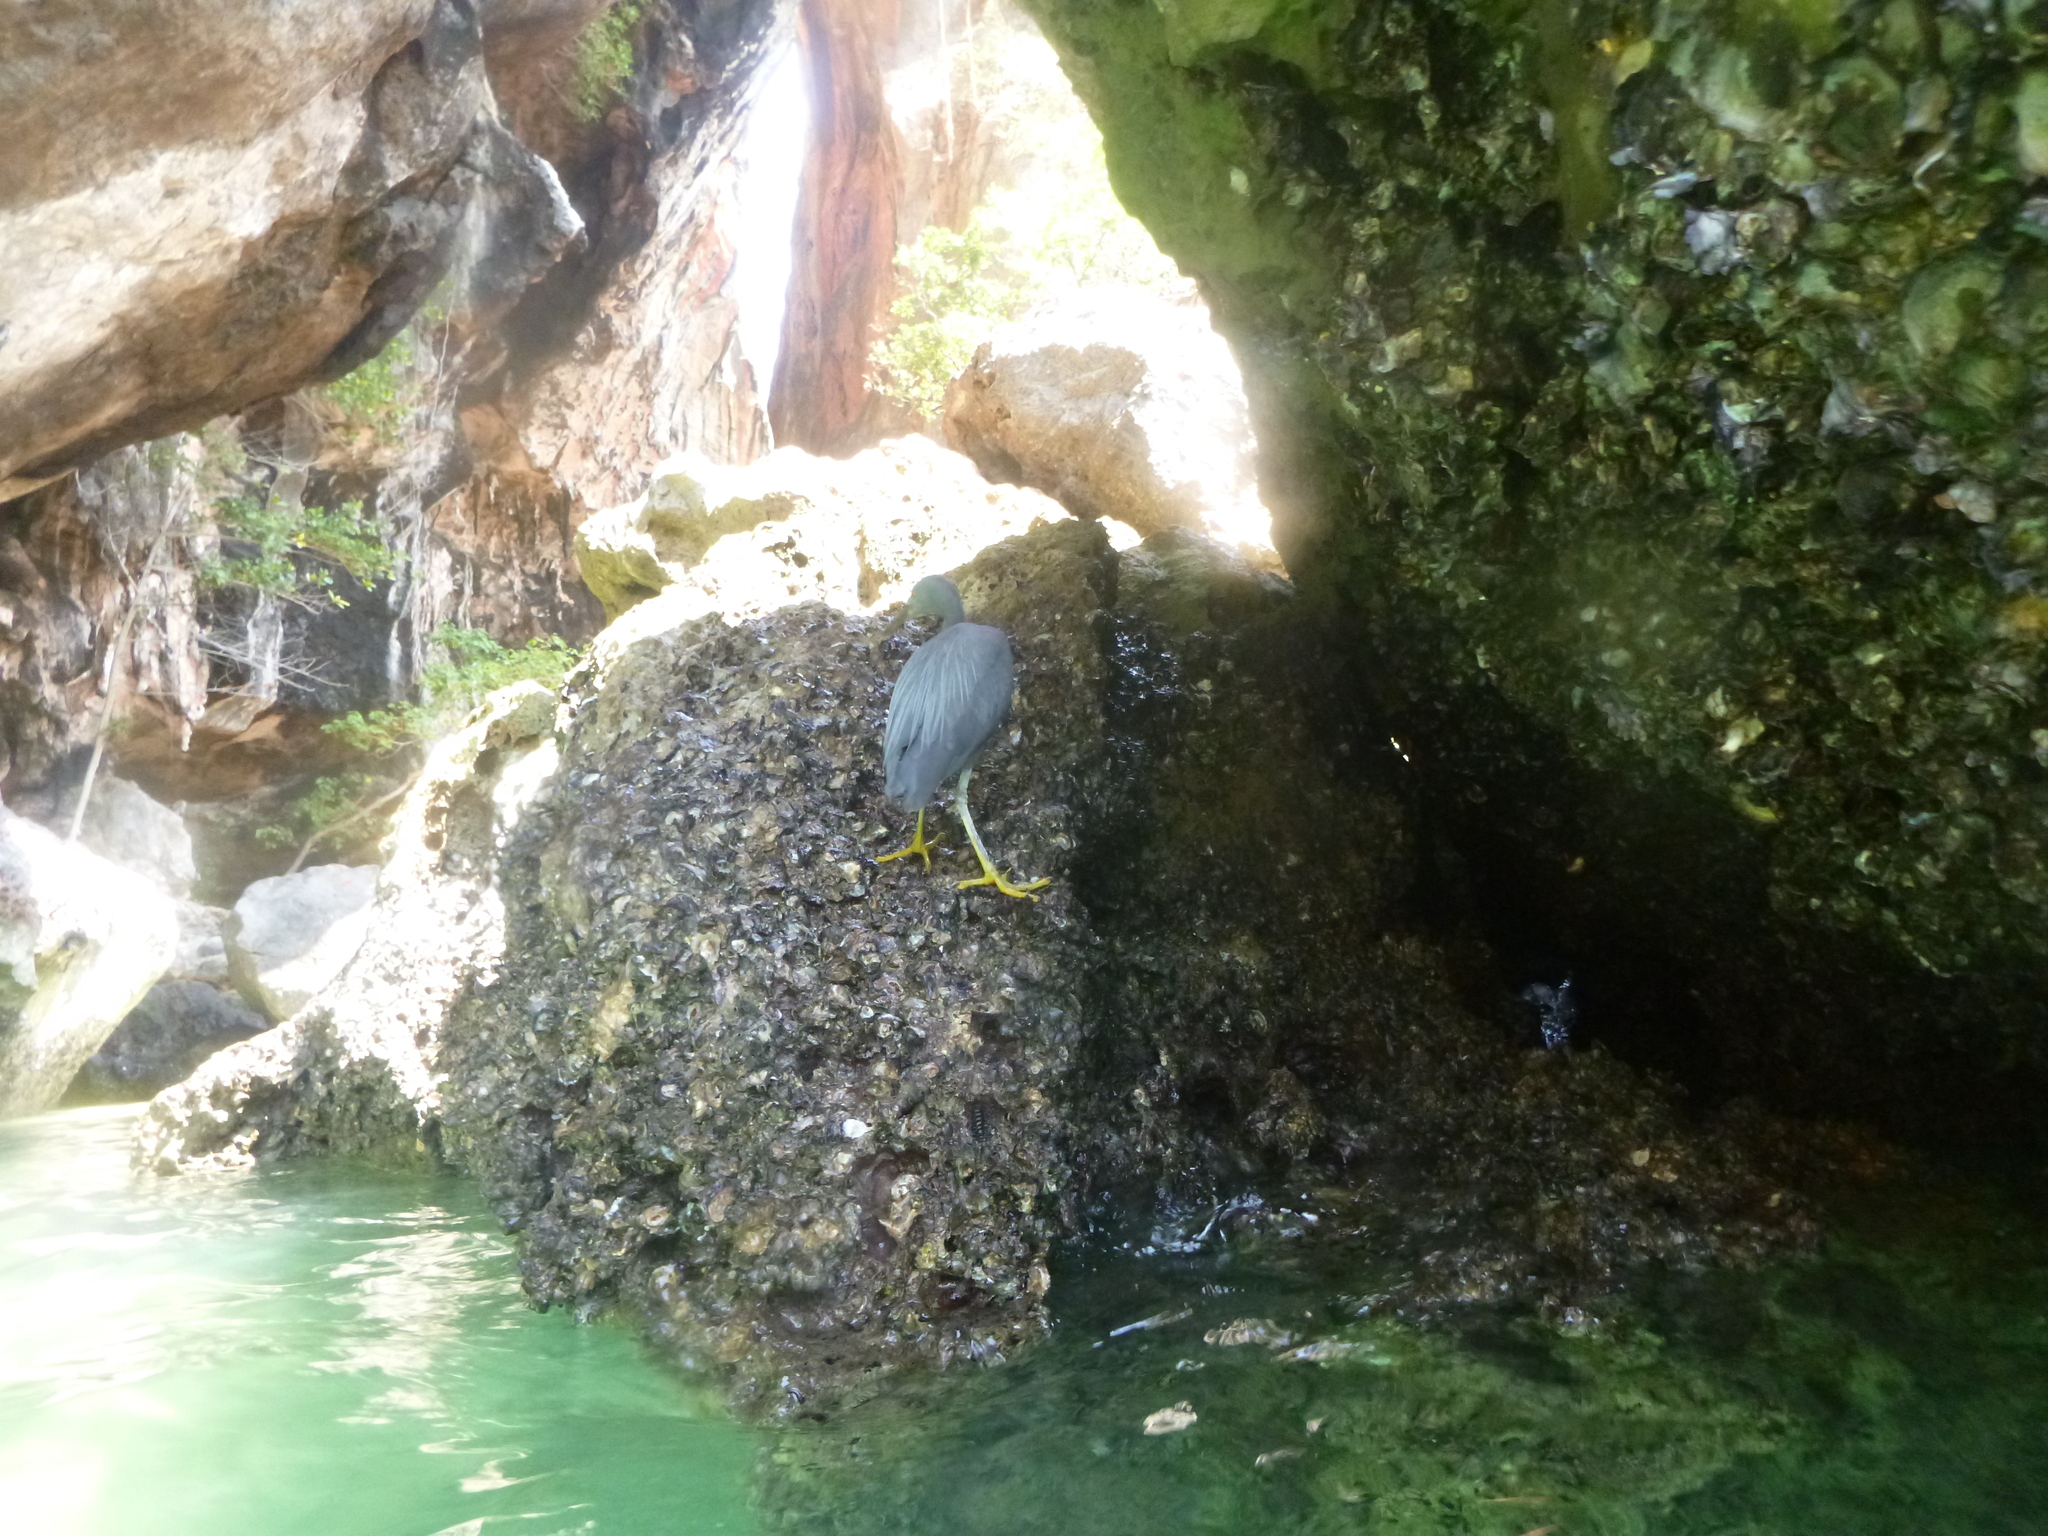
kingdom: Animalia
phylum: Chordata
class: Aves
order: Pelecaniformes
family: Ardeidae
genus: Egretta
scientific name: Egretta sacra
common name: Pacific reef heron
